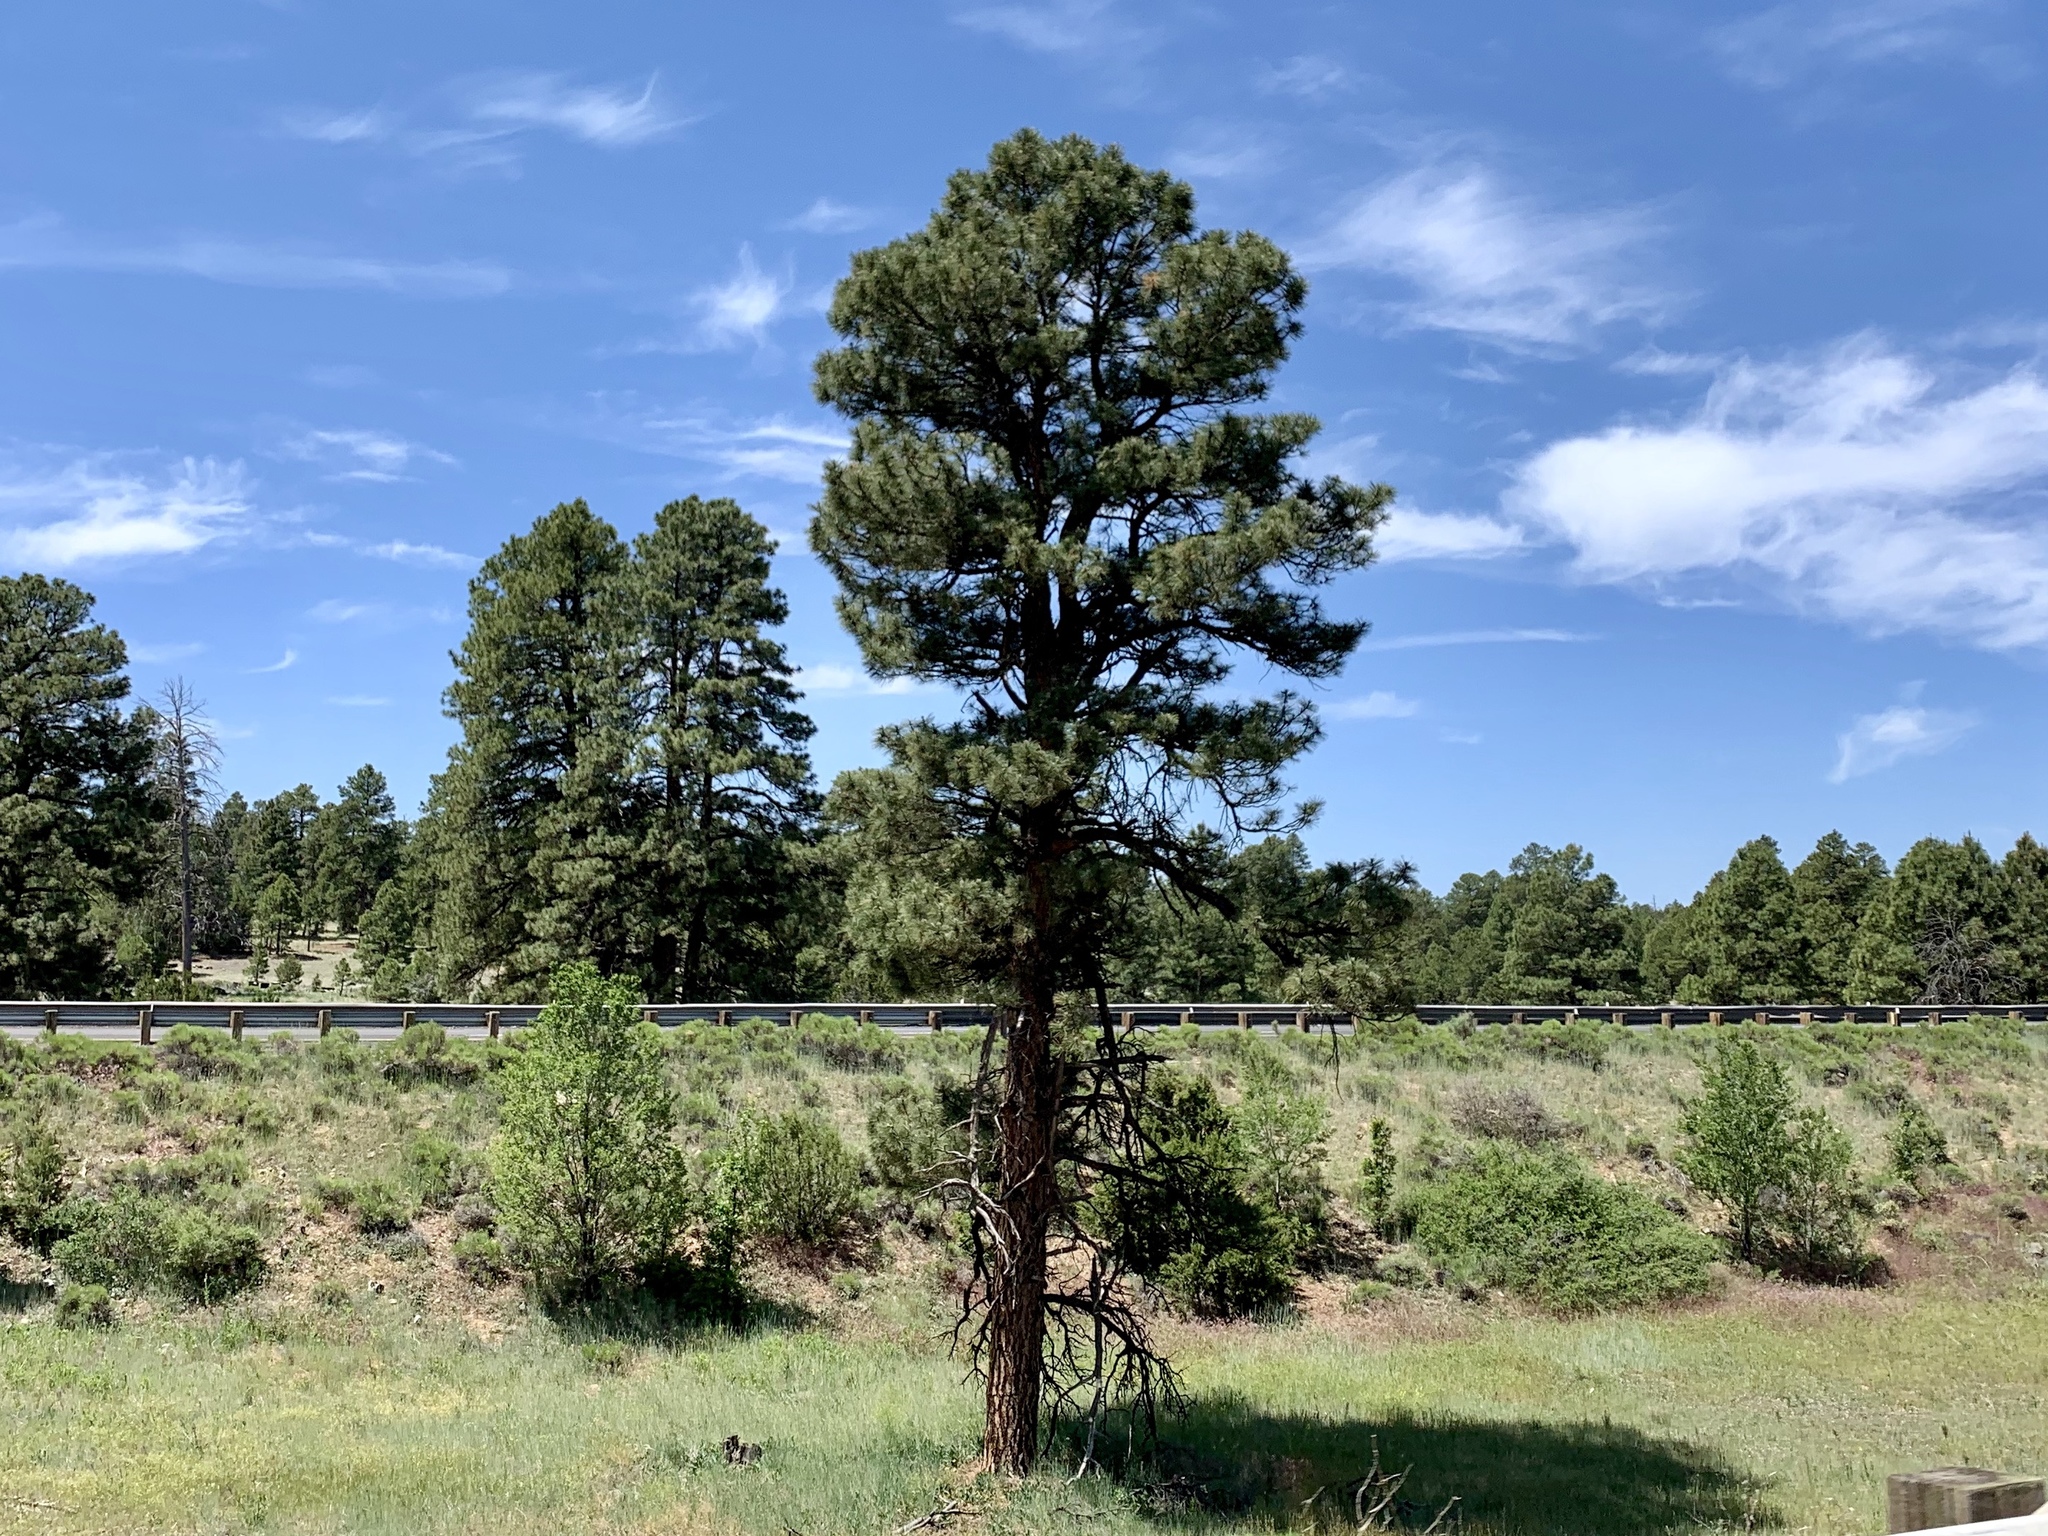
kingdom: Plantae
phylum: Tracheophyta
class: Pinopsida
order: Pinales
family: Pinaceae
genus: Pinus
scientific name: Pinus ponderosa
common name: Western yellow-pine
